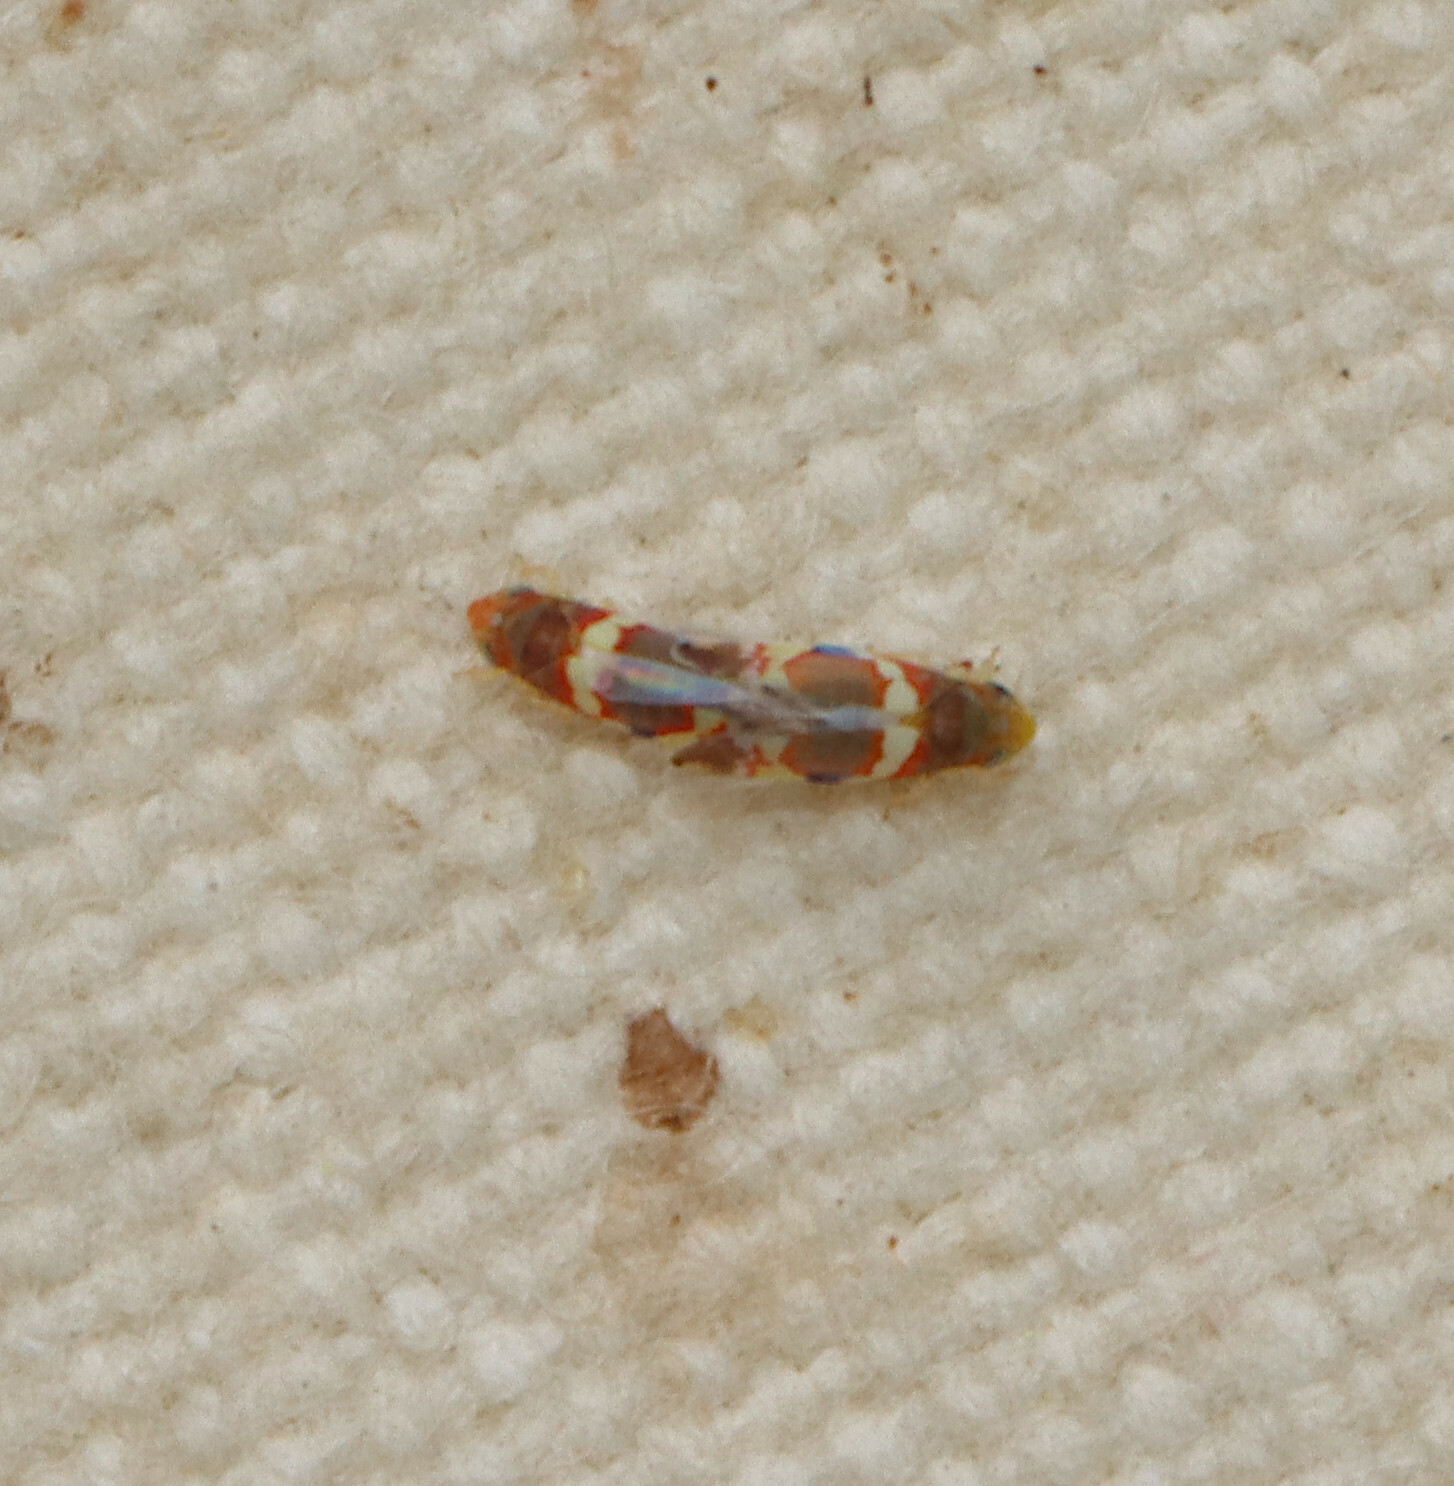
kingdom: Animalia
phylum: Arthropoda
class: Insecta
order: Hemiptera
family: Cicadellidae
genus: Erythroneura
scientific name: Erythroneura vitis
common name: Grapevine leafhopper
